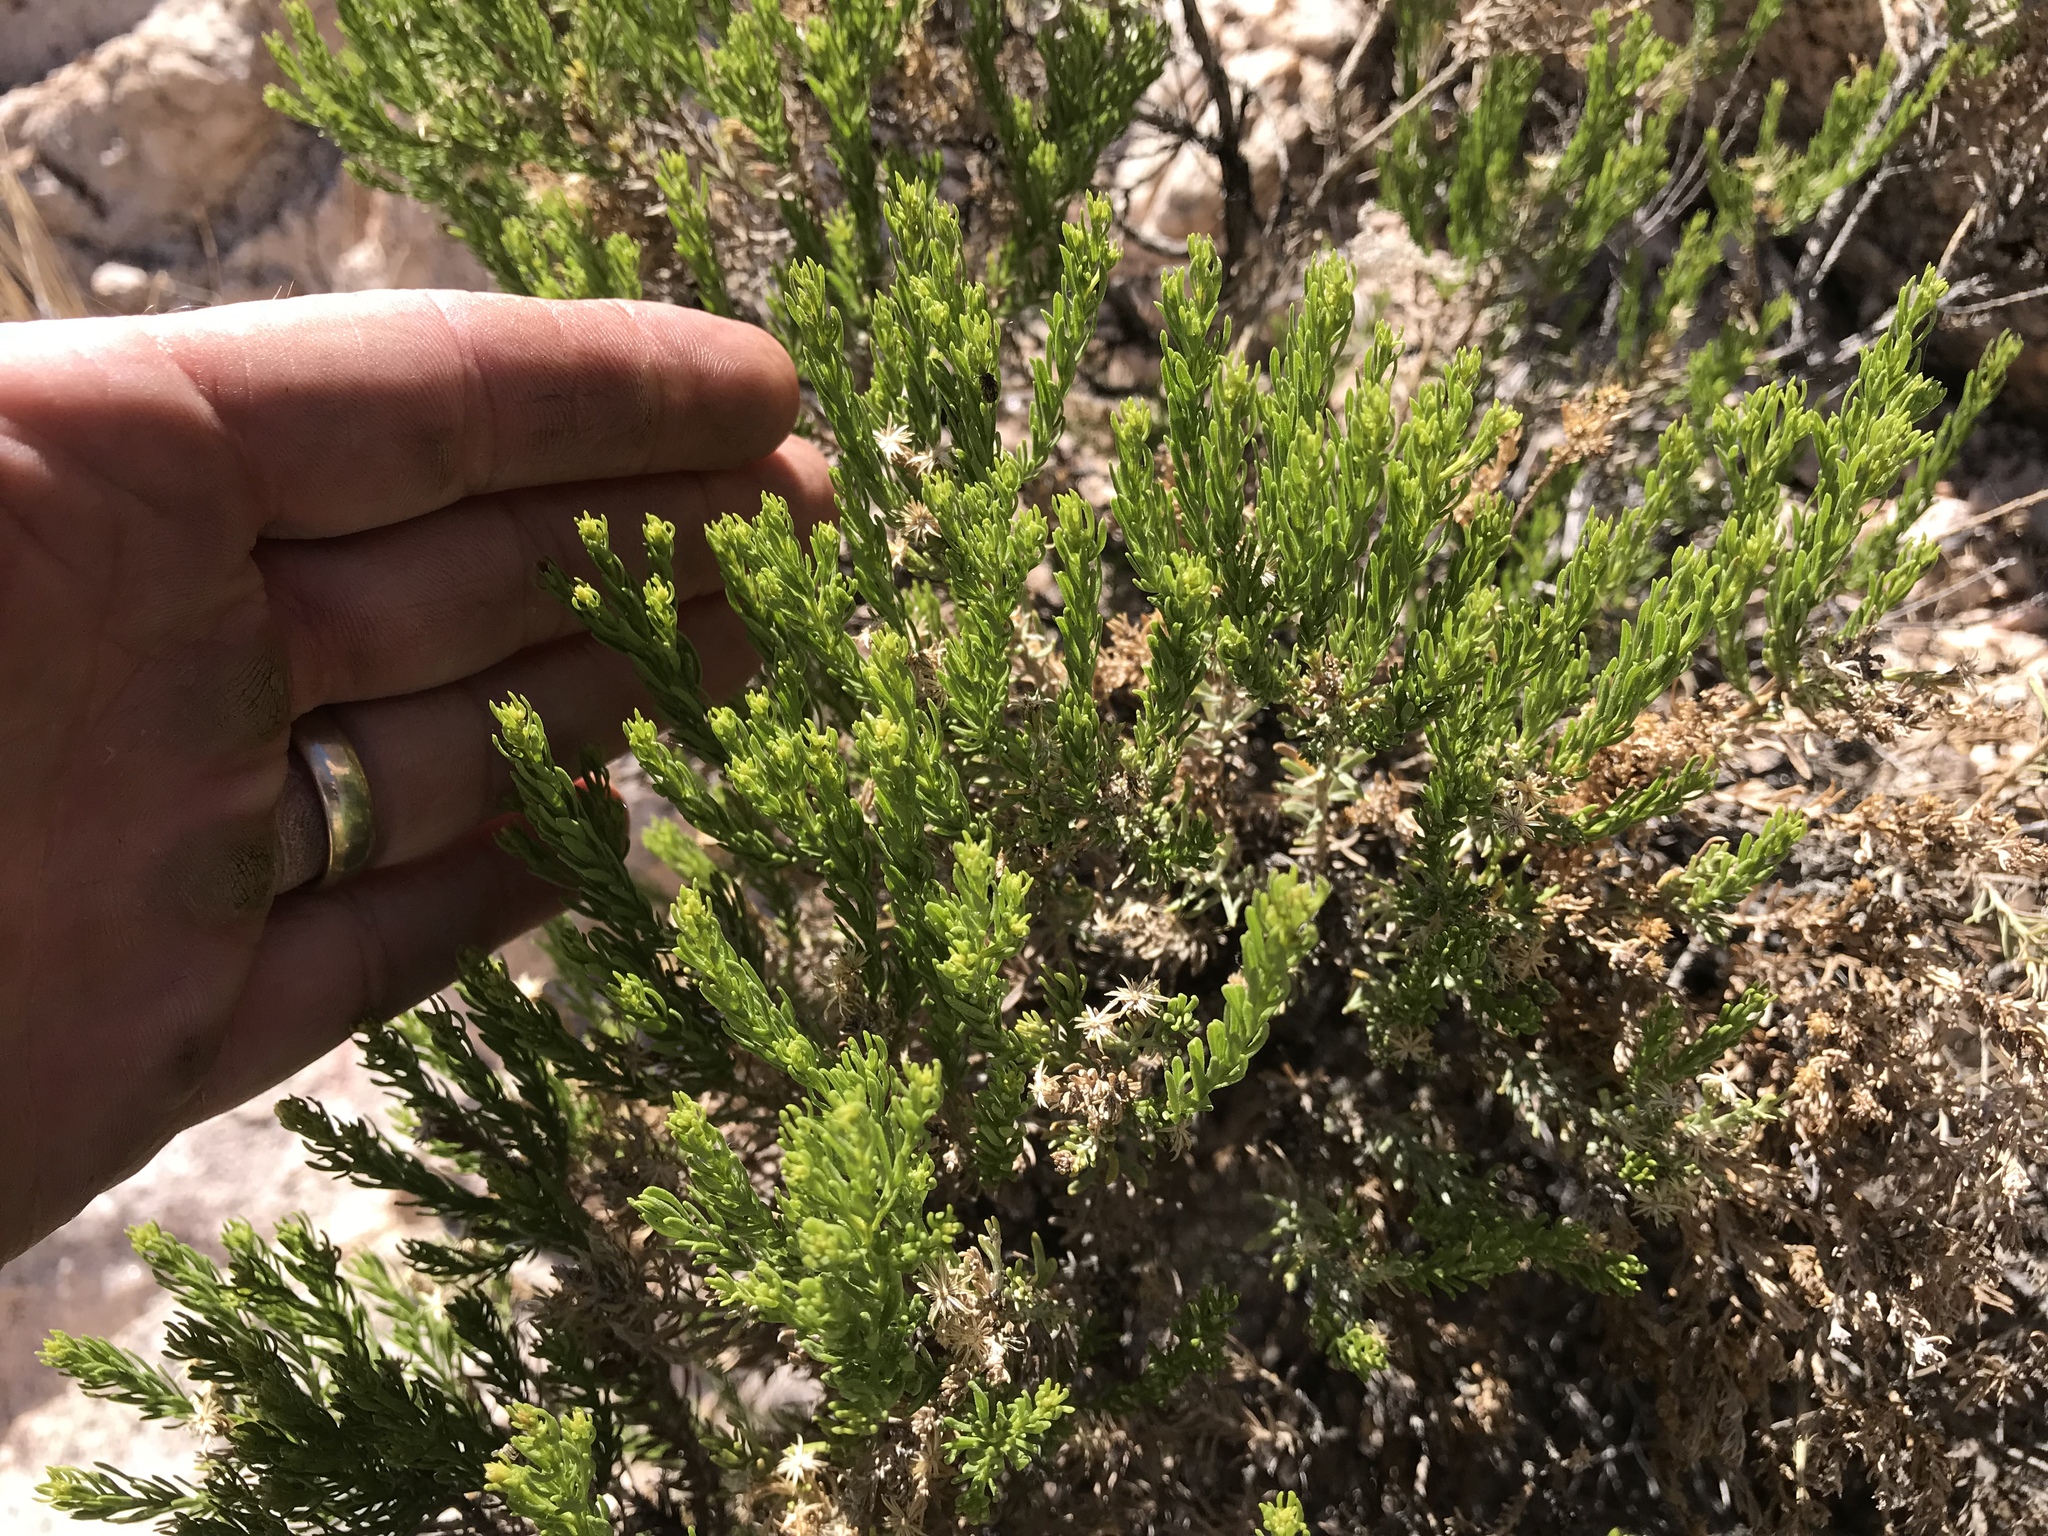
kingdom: Plantae
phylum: Tracheophyta
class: Magnoliopsida
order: Asterales
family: Asteraceae
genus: Ericameria
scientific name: Ericameria laricifolia
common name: Turpentine-bush
